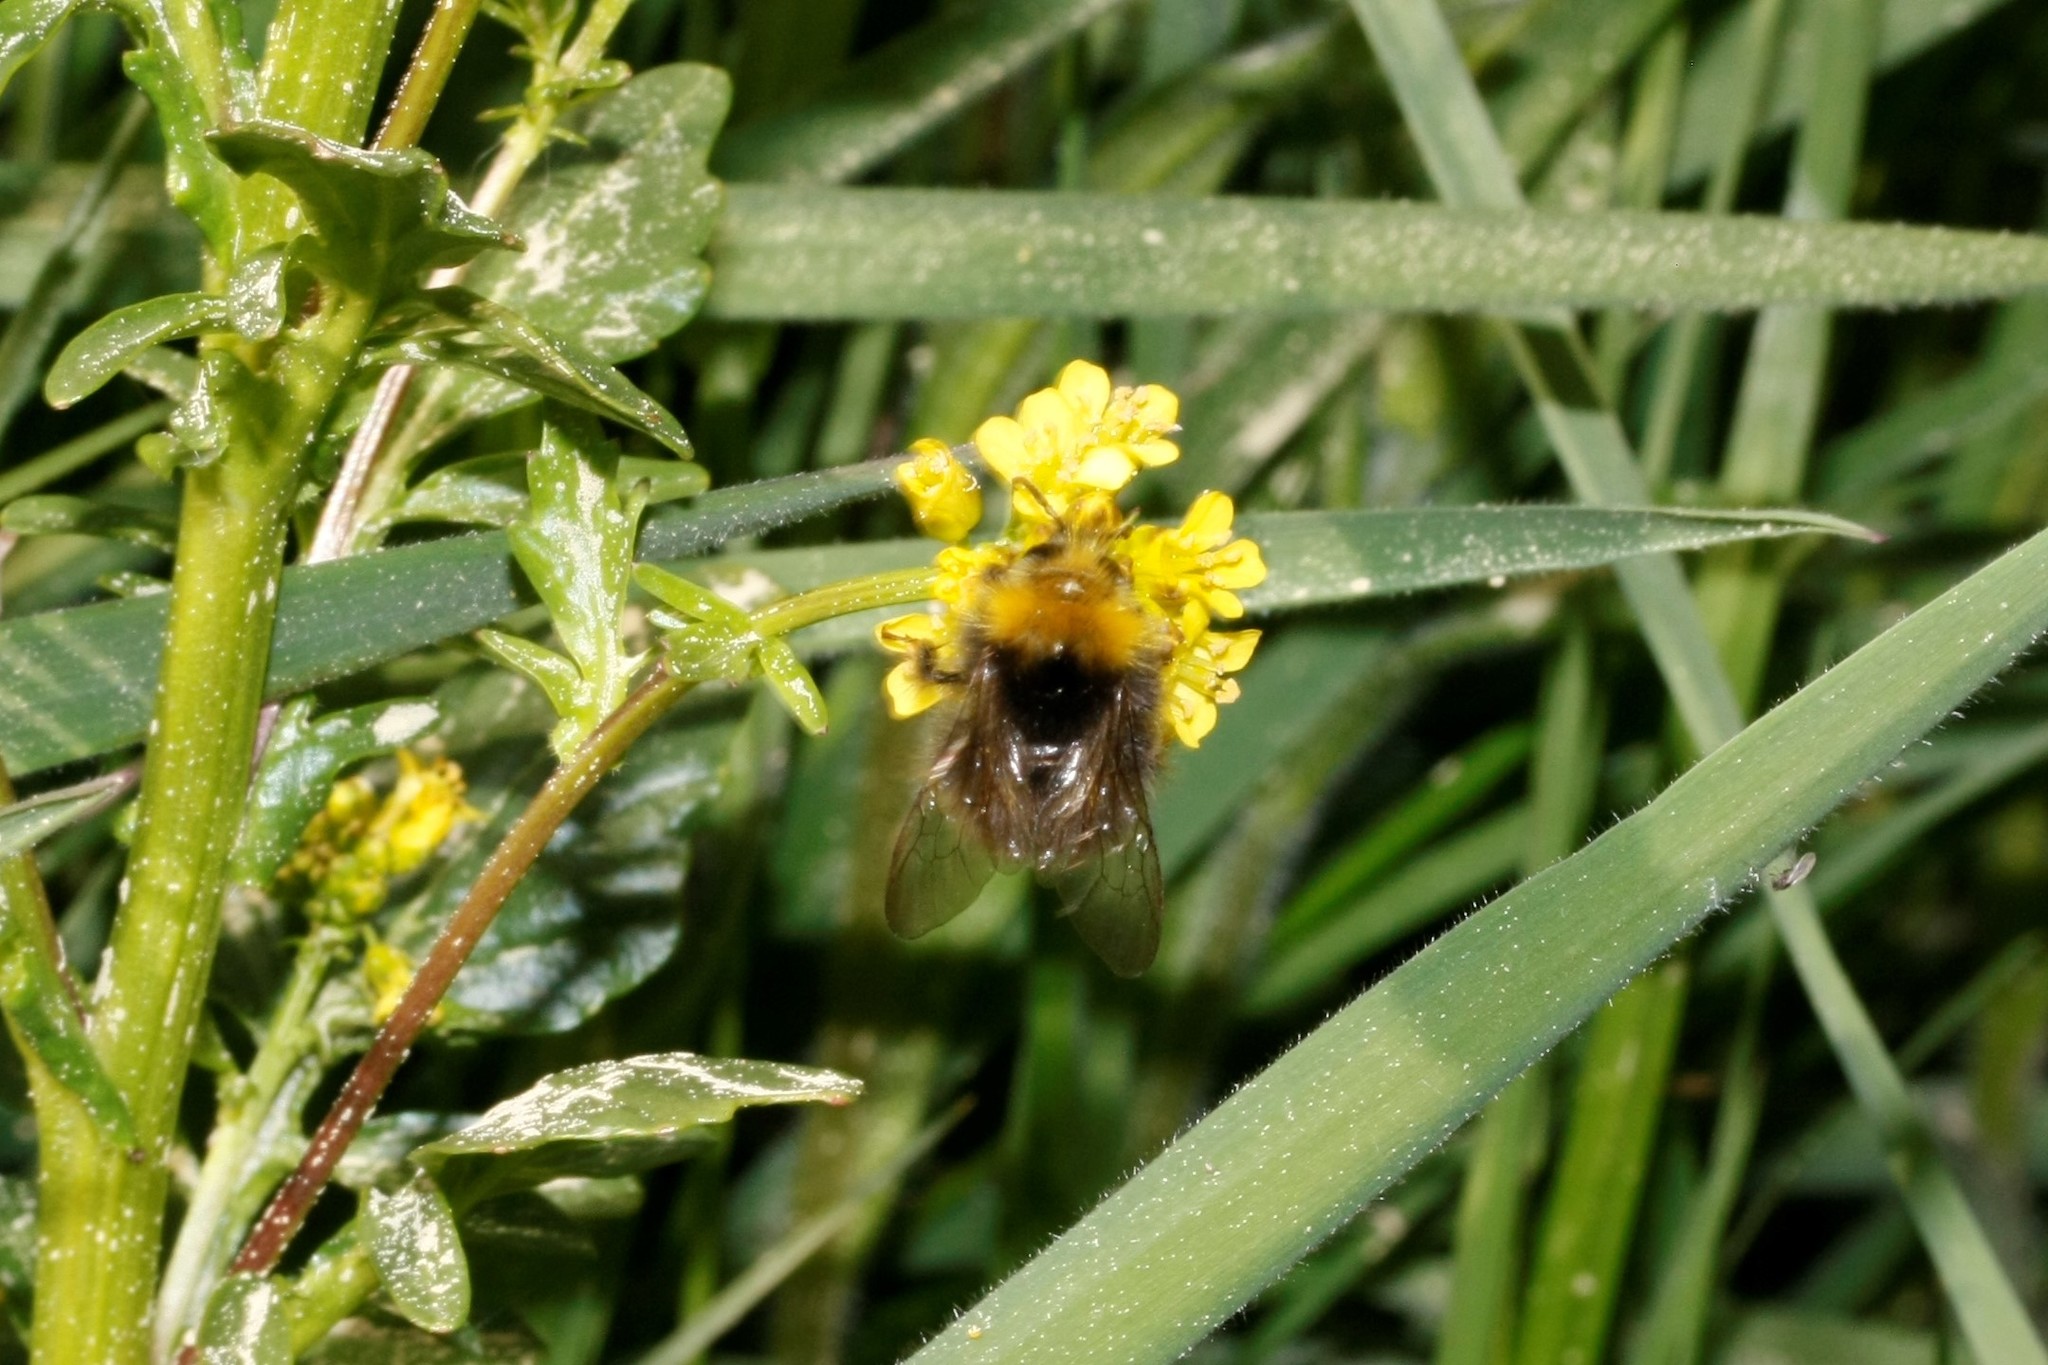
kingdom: Animalia
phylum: Arthropoda
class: Insecta
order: Hymenoptera
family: Apidae
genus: Bombus
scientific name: Bombus pratorum
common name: Early humble-bee
